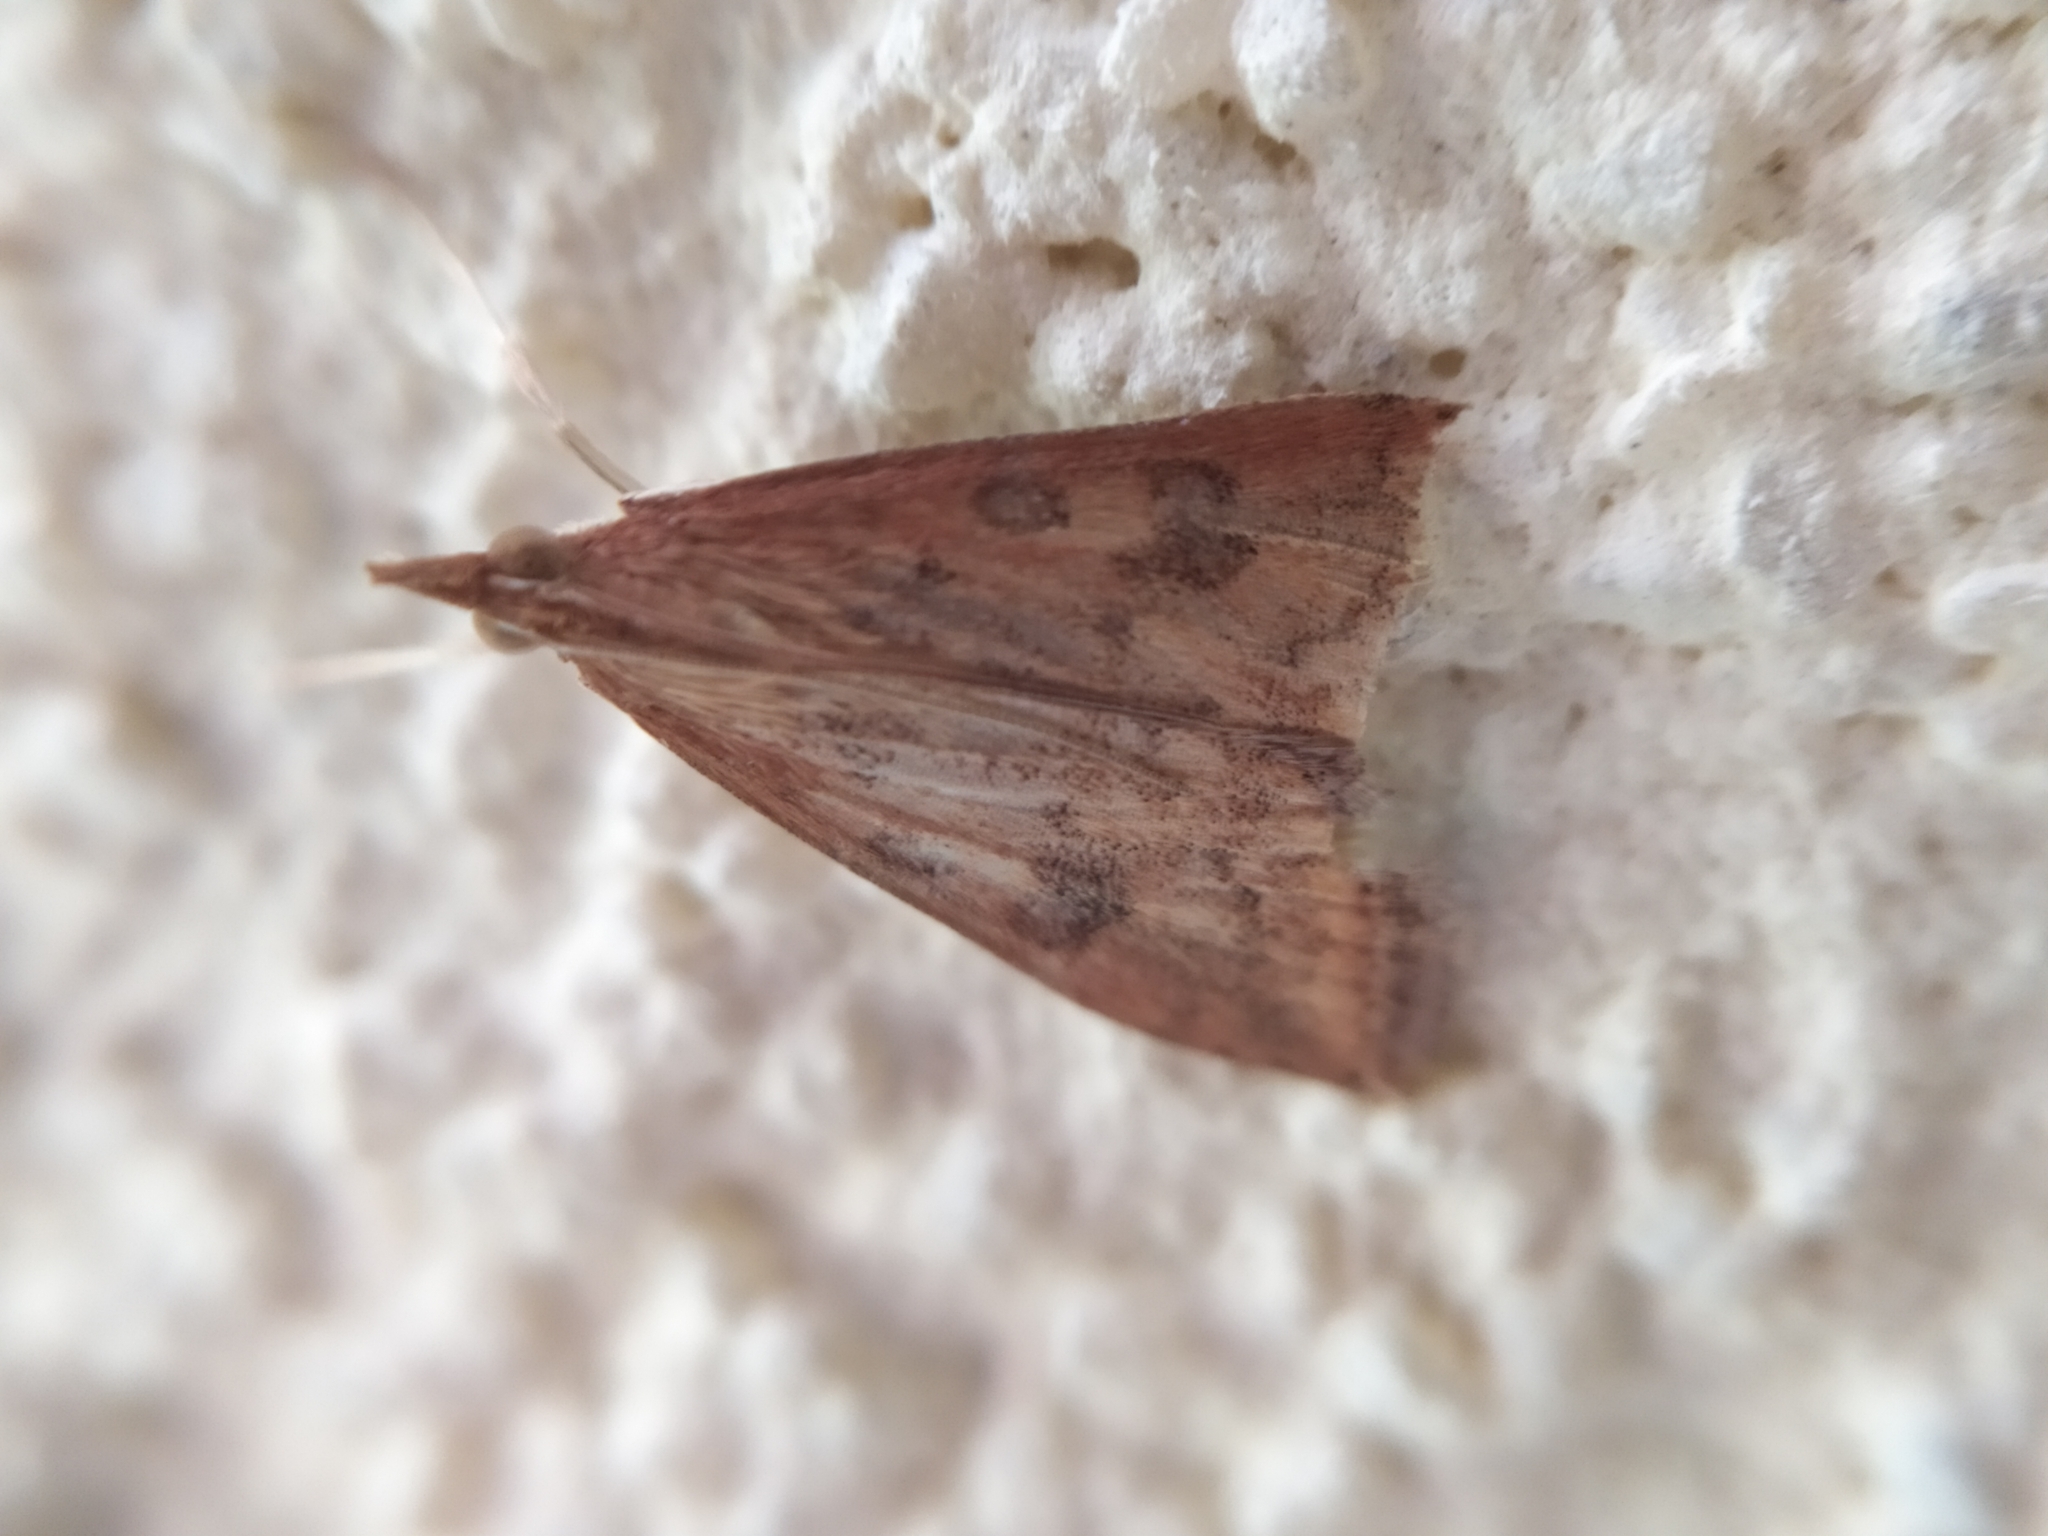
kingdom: Animalia
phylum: Arthropoda
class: Insecta
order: Lepidoptera
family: Crambidae
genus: Udea
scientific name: Udea ferrugalis
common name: Rusty dot
